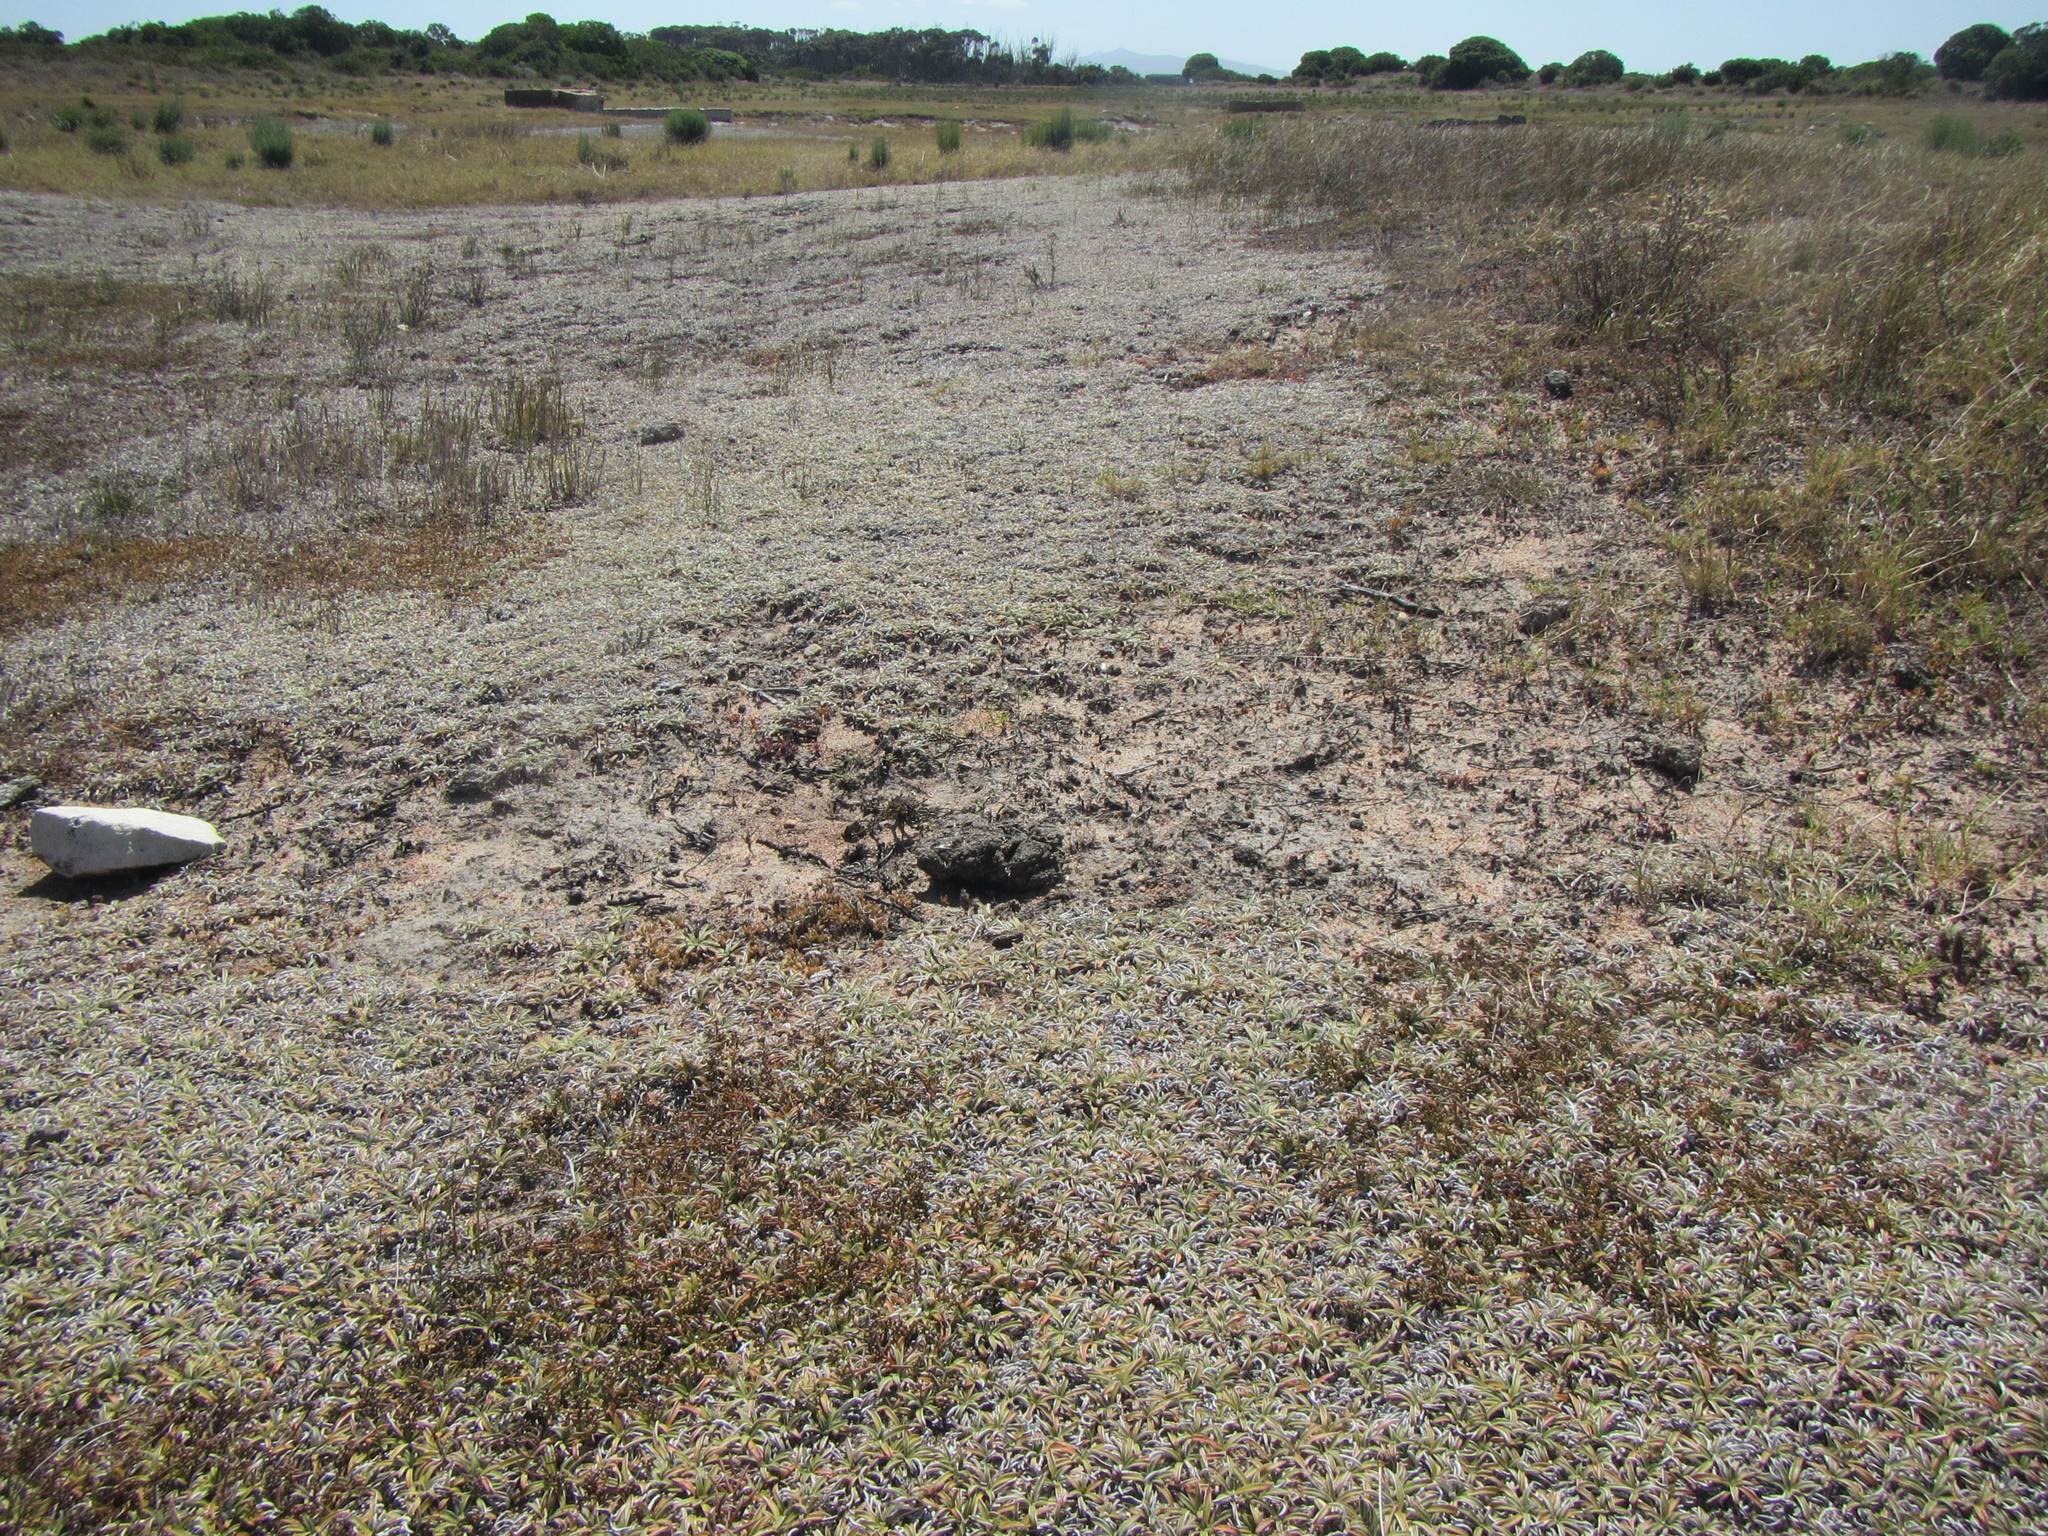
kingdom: Plantae
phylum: Tracheophyta
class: Magnoliopsida
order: Asterales
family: Asteraceae
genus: Dymondia
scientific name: Dymondia margaretae
